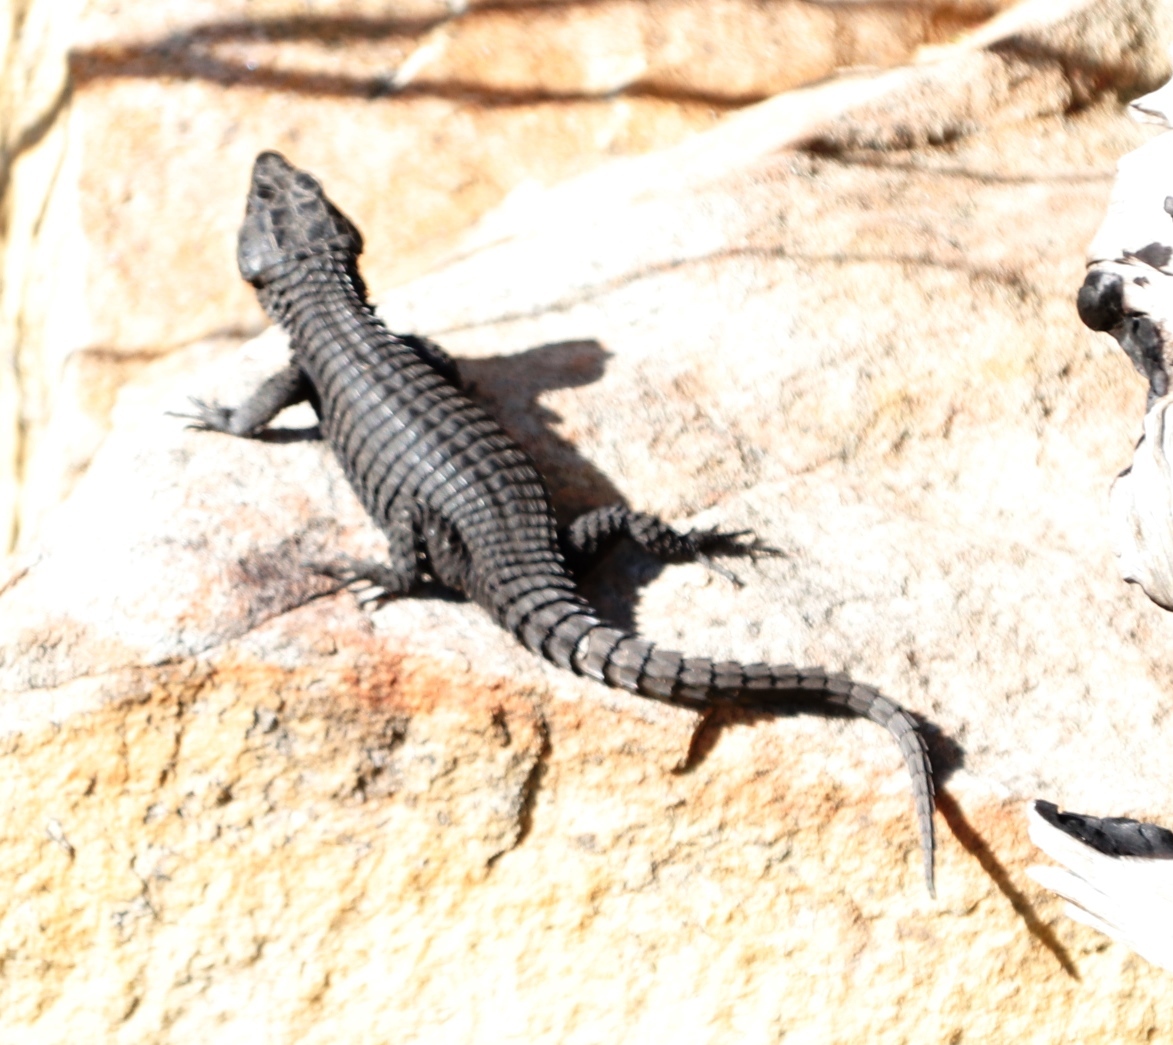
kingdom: Animalia
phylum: Chordata
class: Squamata
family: Cordylidae
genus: Cordylus
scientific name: Cordylus niger
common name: Black girdled lizard
